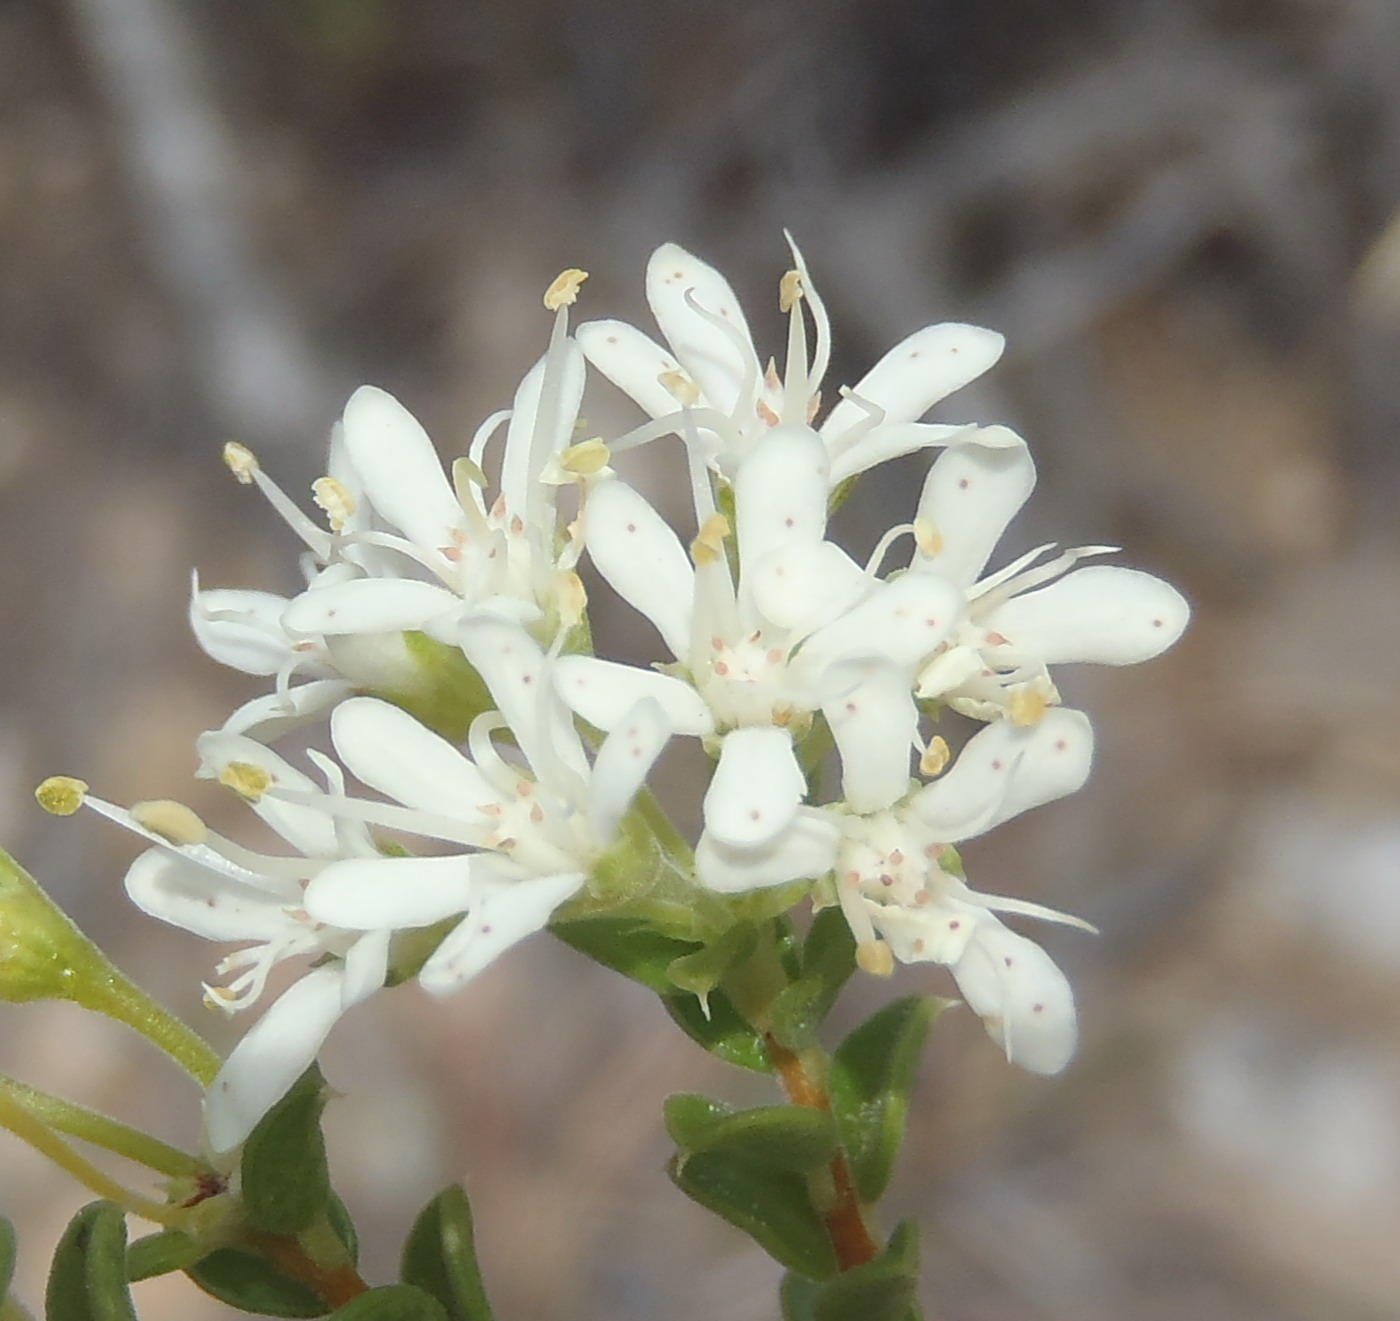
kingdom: Plantae
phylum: Tracheophyta
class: Magnoliopsida
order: Sapindales
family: Rutaceae
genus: Agathosma
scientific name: Agathosma recurvifolia
